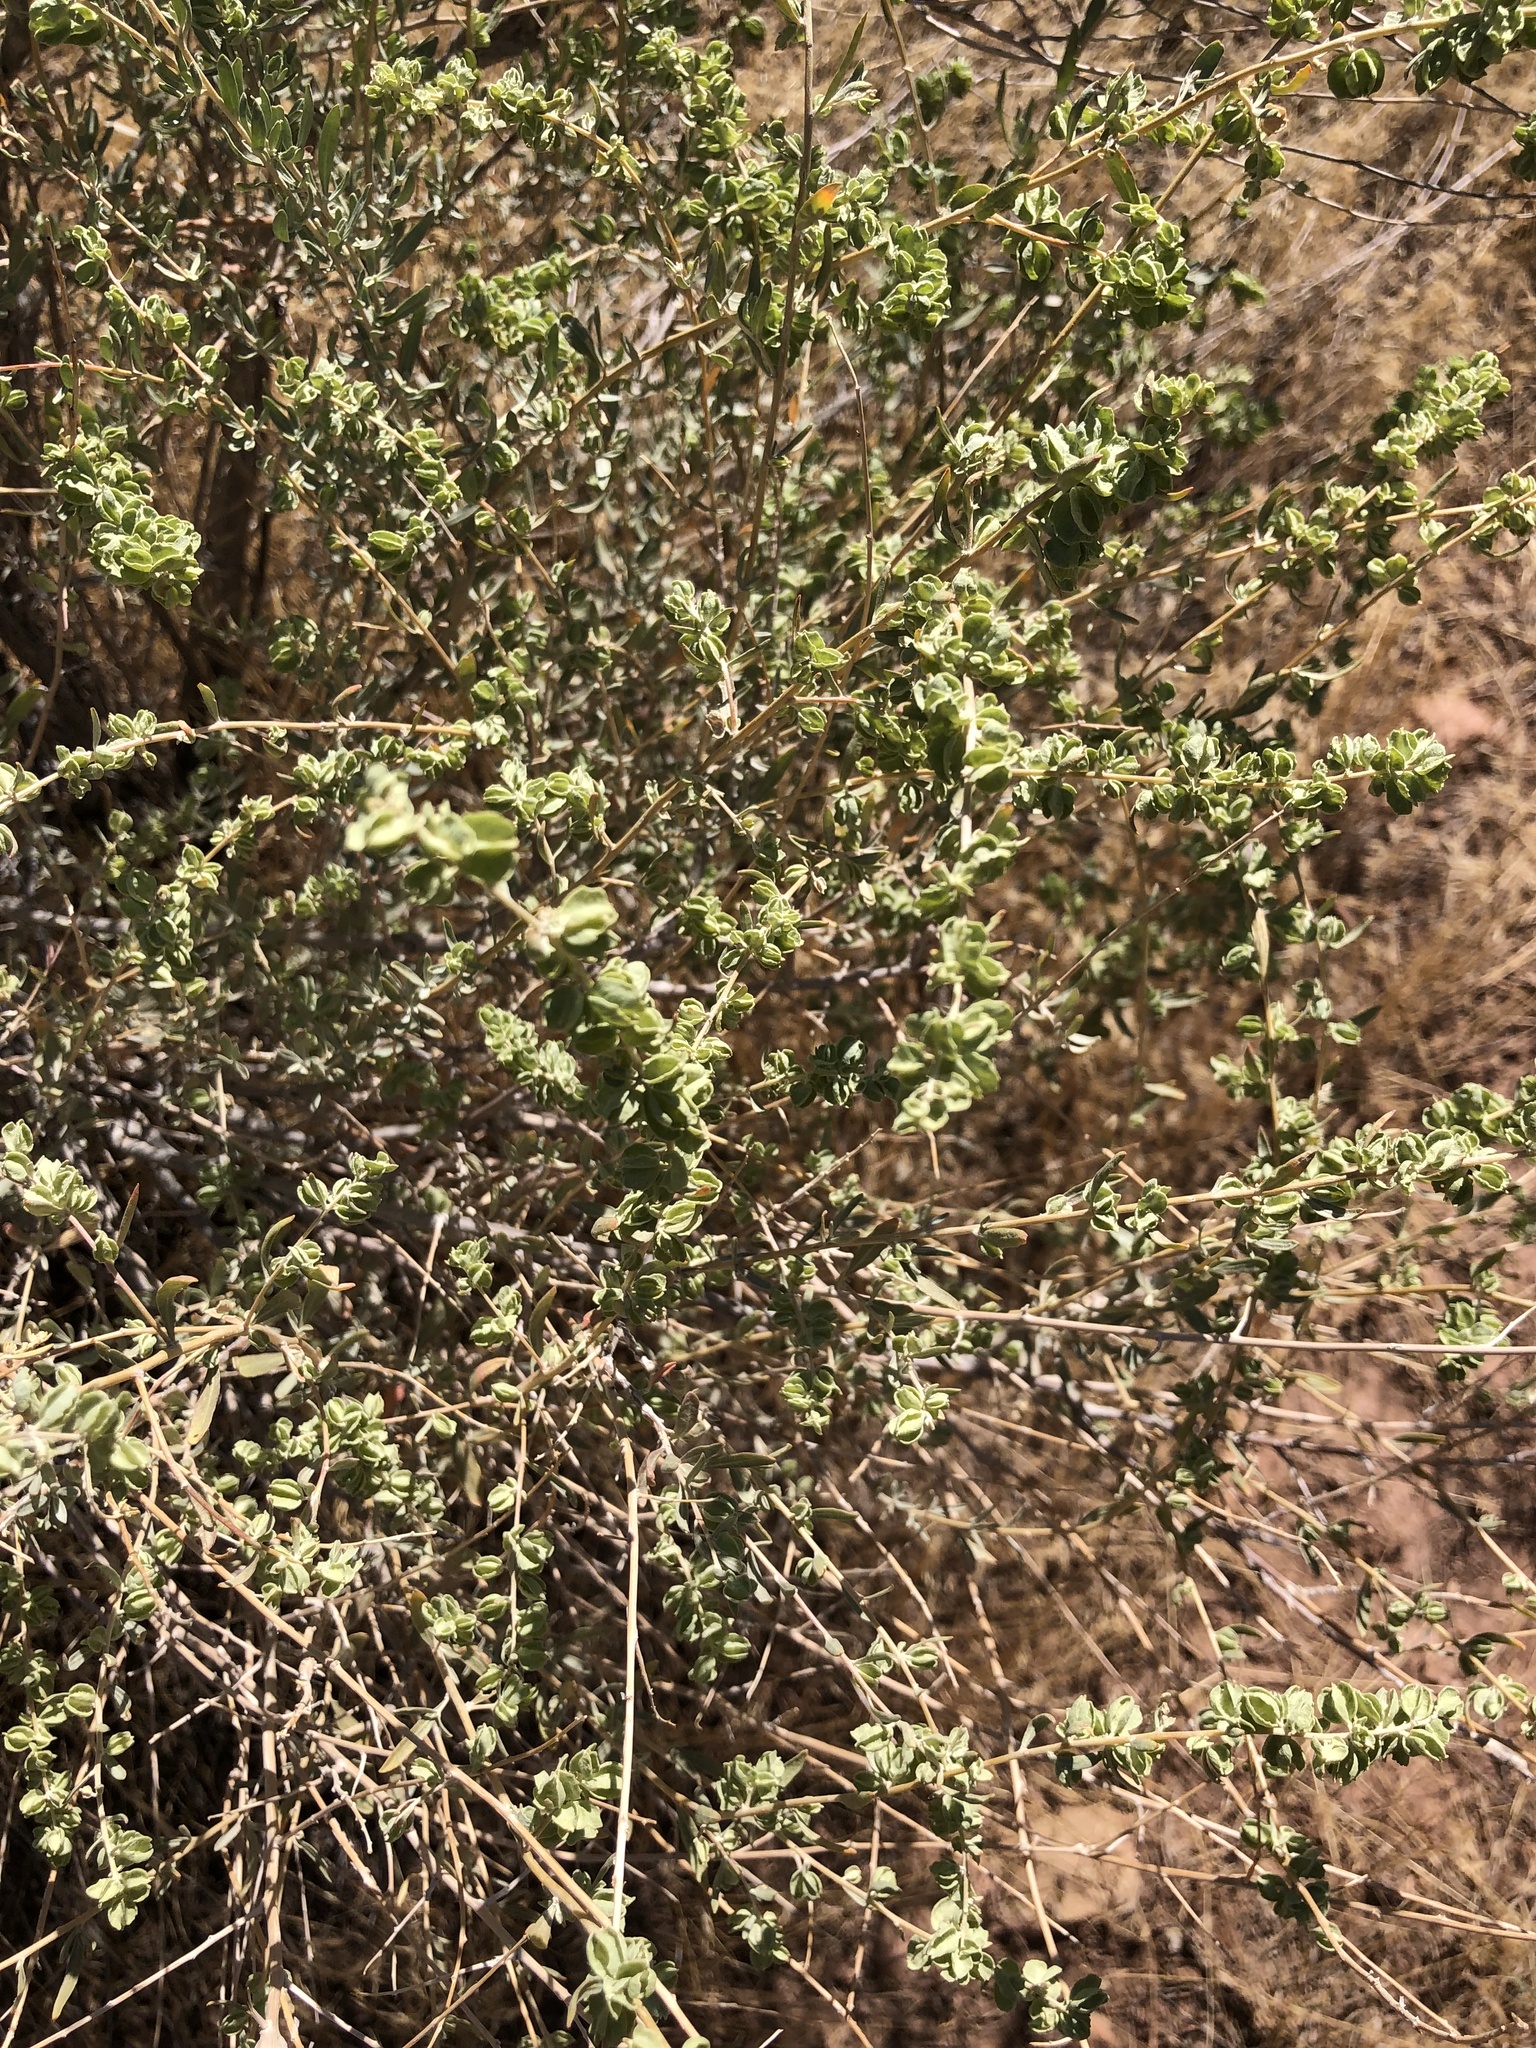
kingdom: Plantae
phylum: Tracheophyta
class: Magnoliopsida
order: Caryophyllales
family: Amaranthaceae
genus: Atriplex
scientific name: Atriplex canescens
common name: Four-wing saltbush
